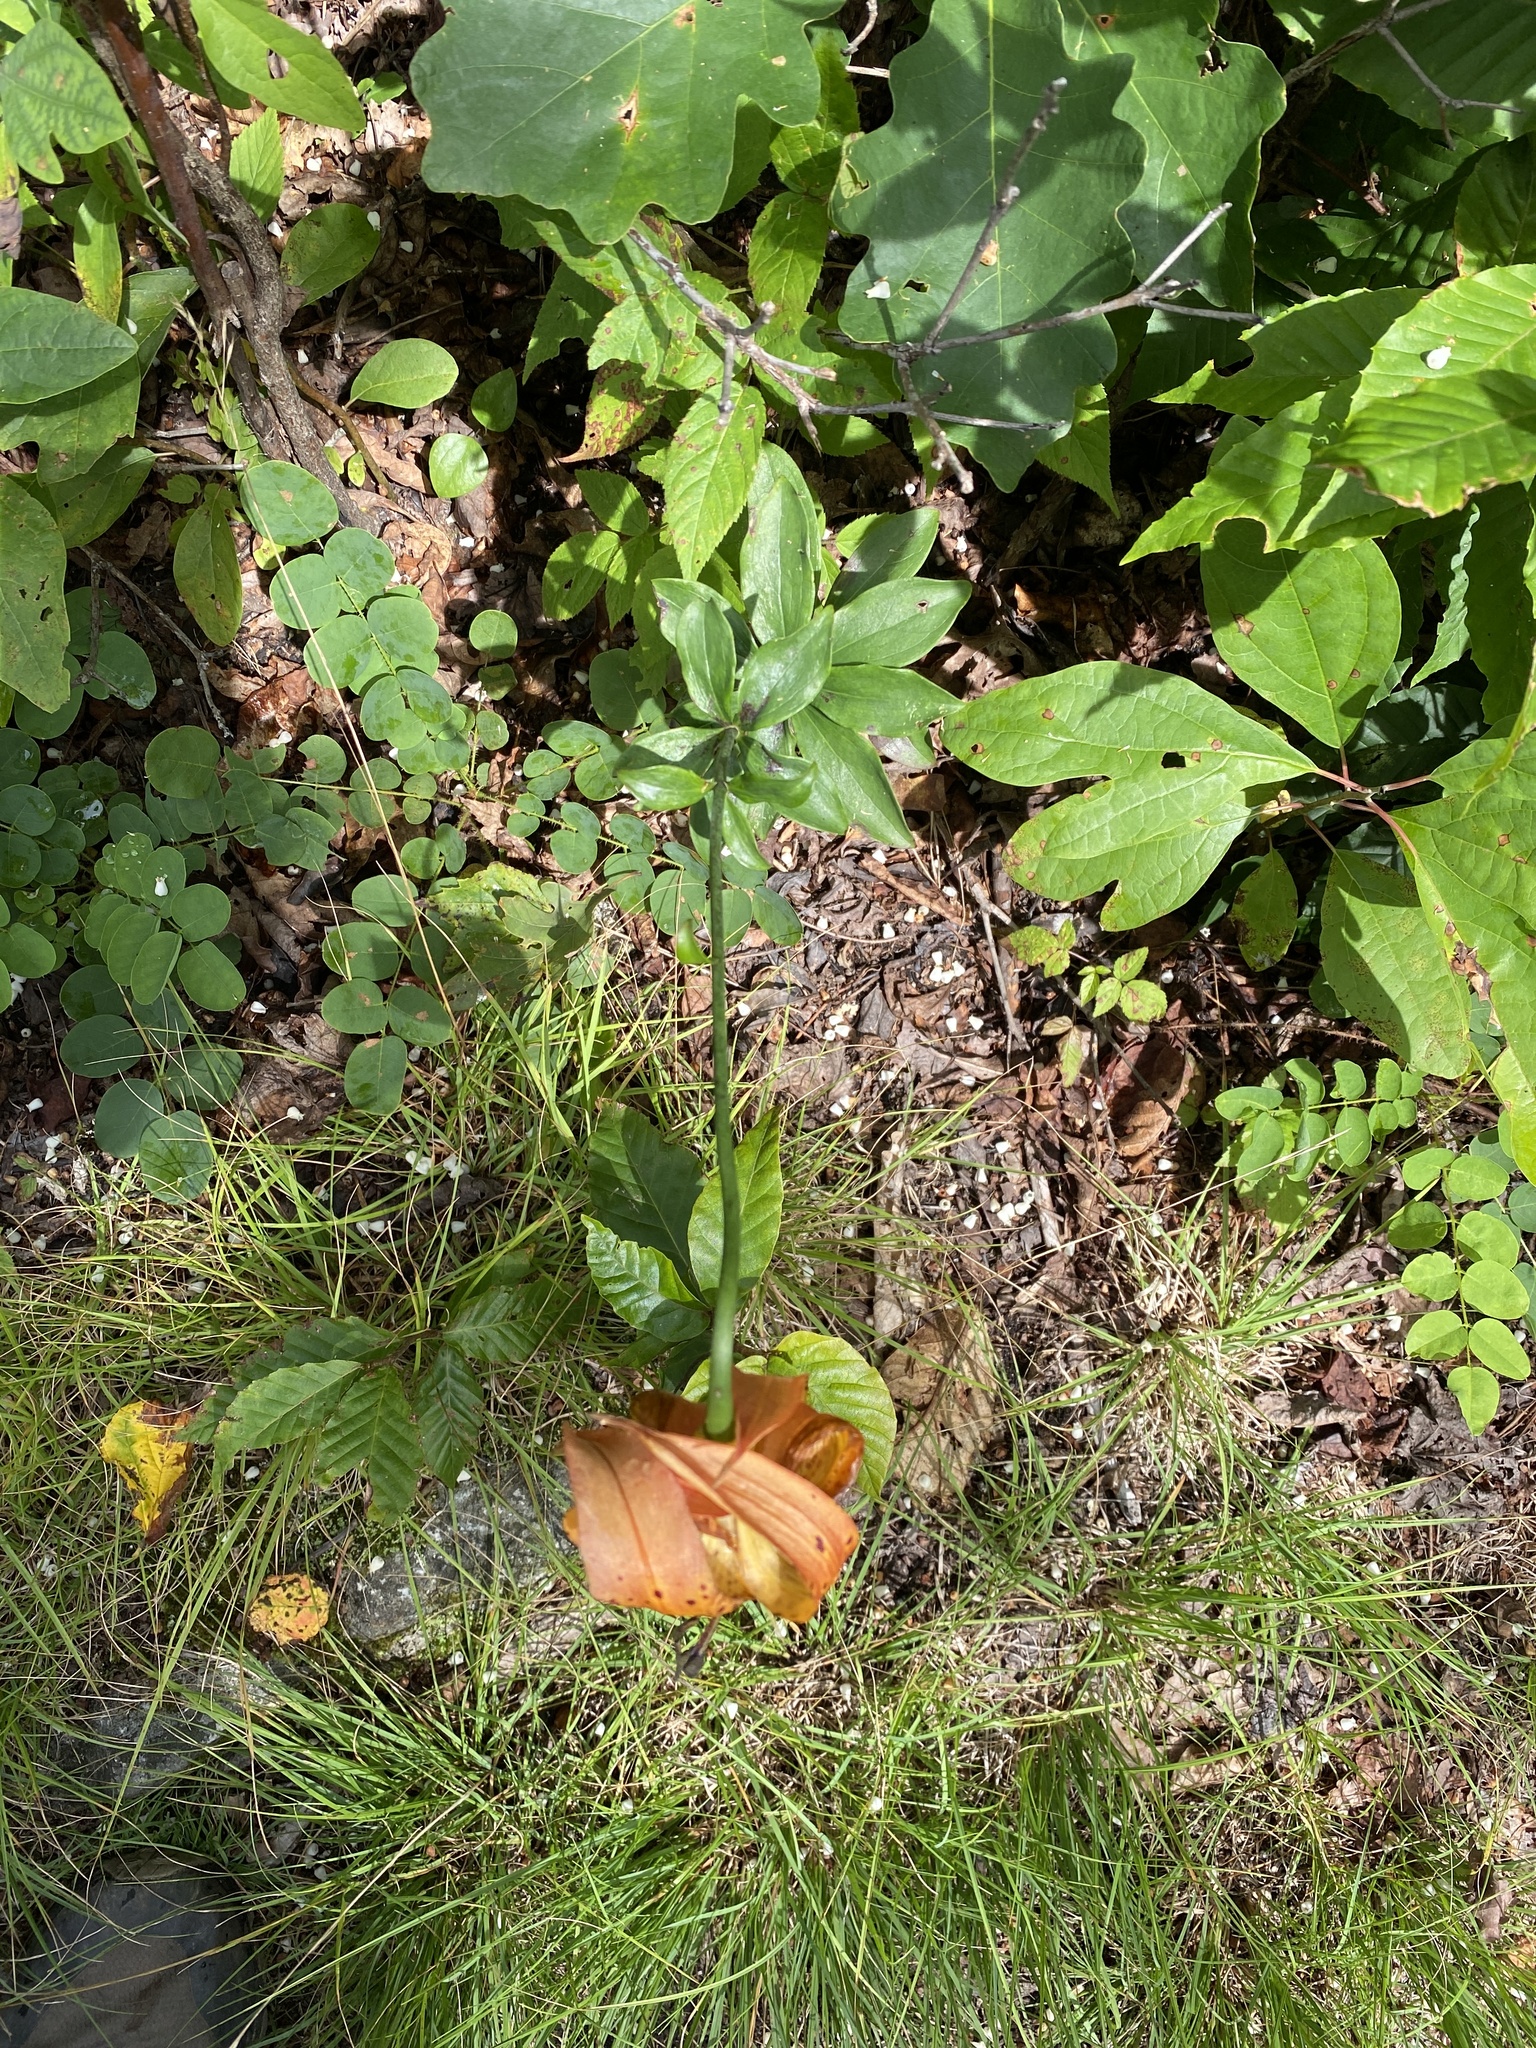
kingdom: Plantae
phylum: Tracheophyta
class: Liliopsida
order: Liliales
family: Liliaceae
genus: Lilium
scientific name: Lilium michauxii
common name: Carolina lily
